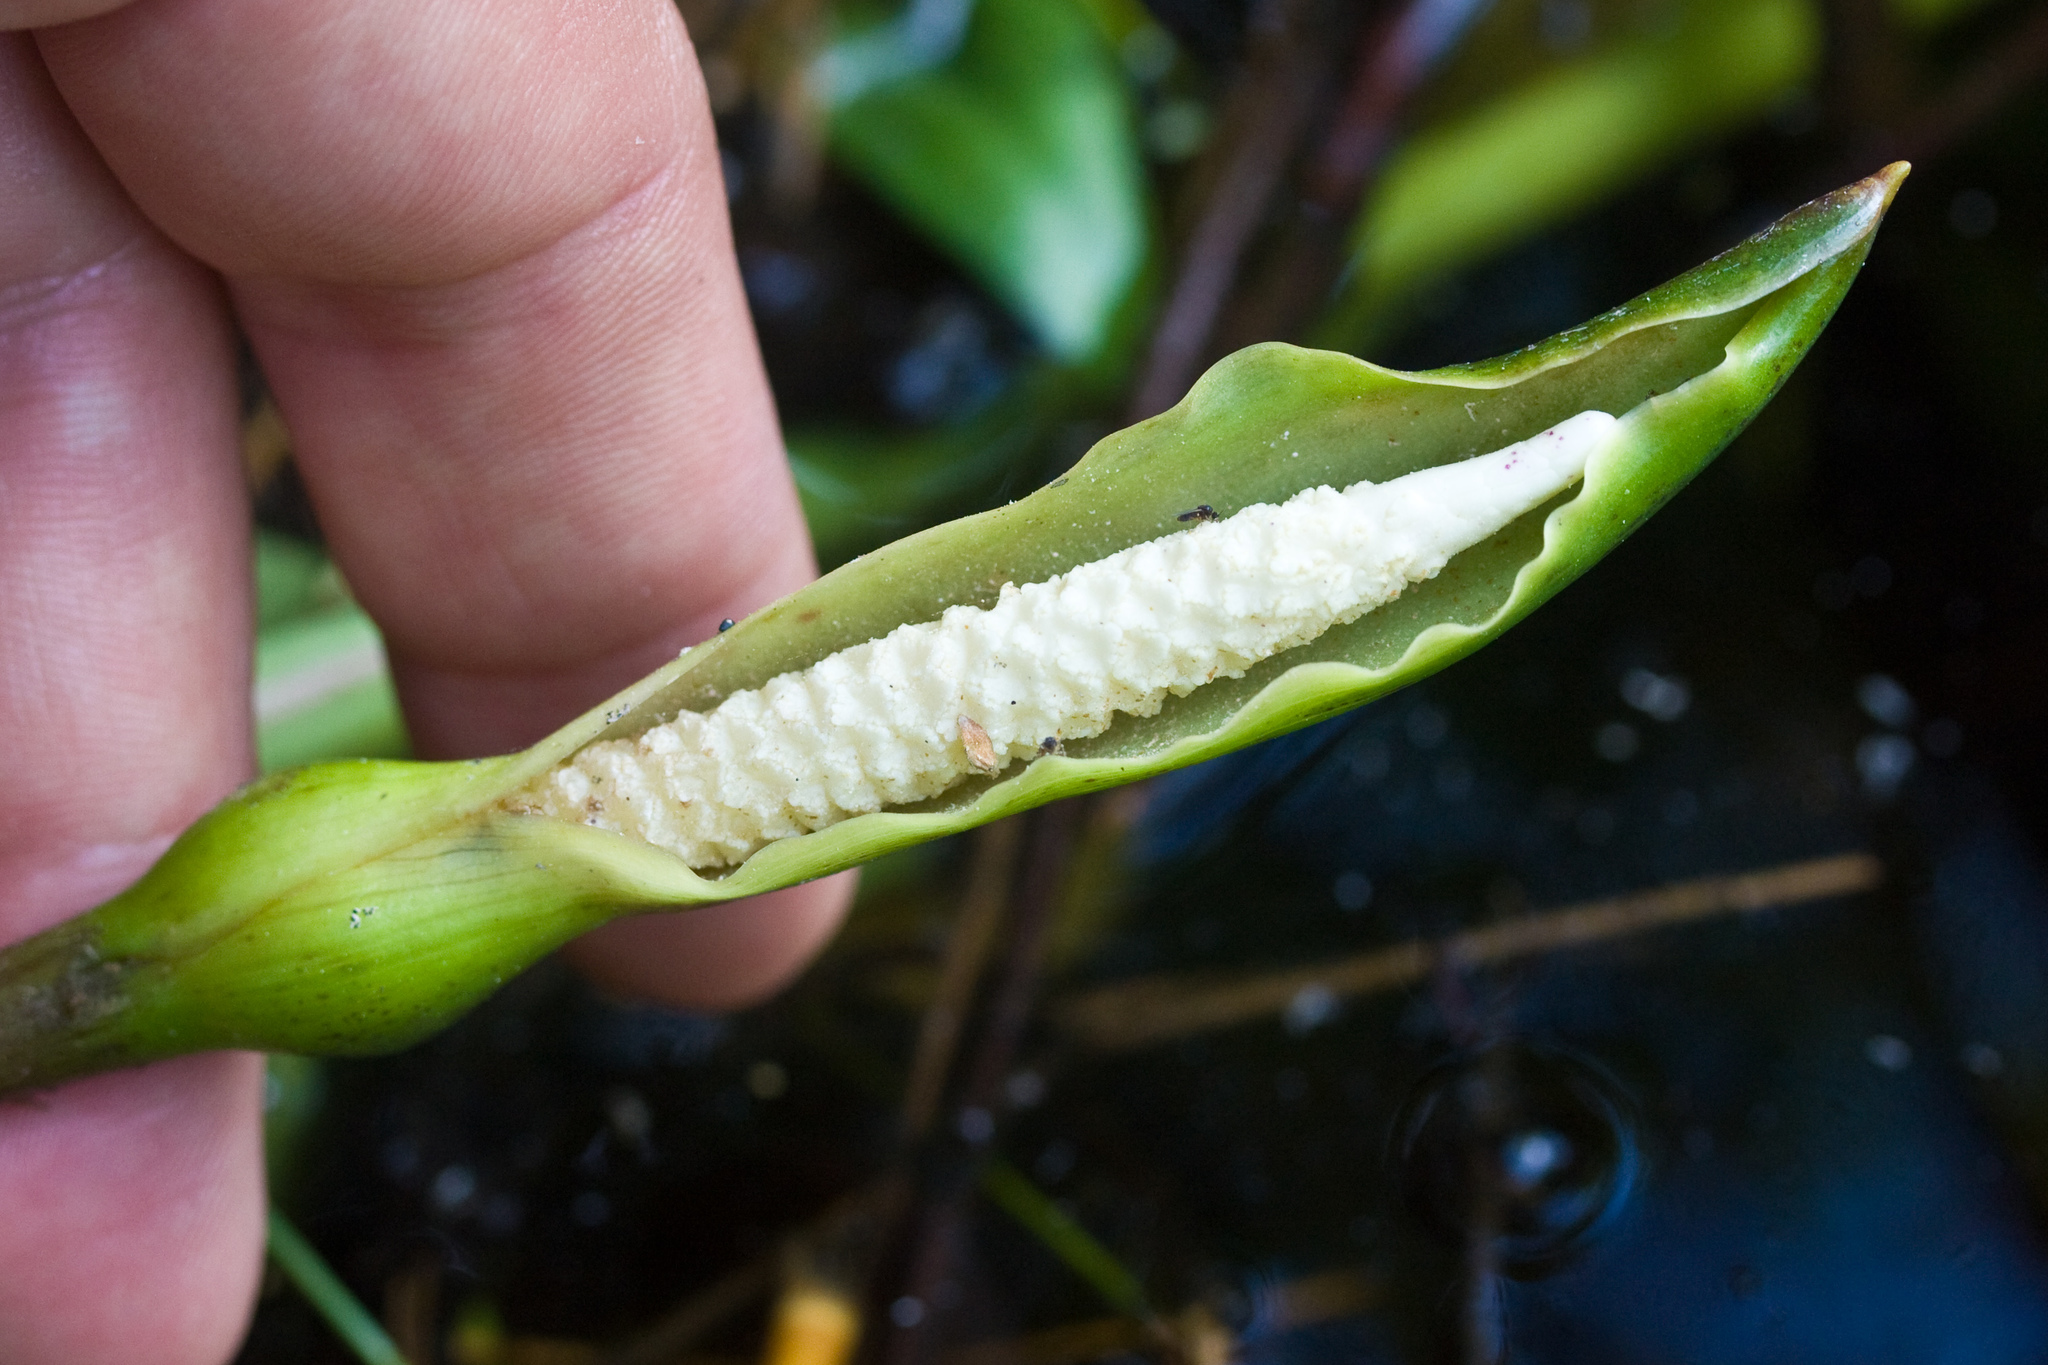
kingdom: Plantae
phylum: Tracheophyta
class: Liliopsida
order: Alismatales
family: Araceae
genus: Peltandra
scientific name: Peltandra virginica
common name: Arrow arum
